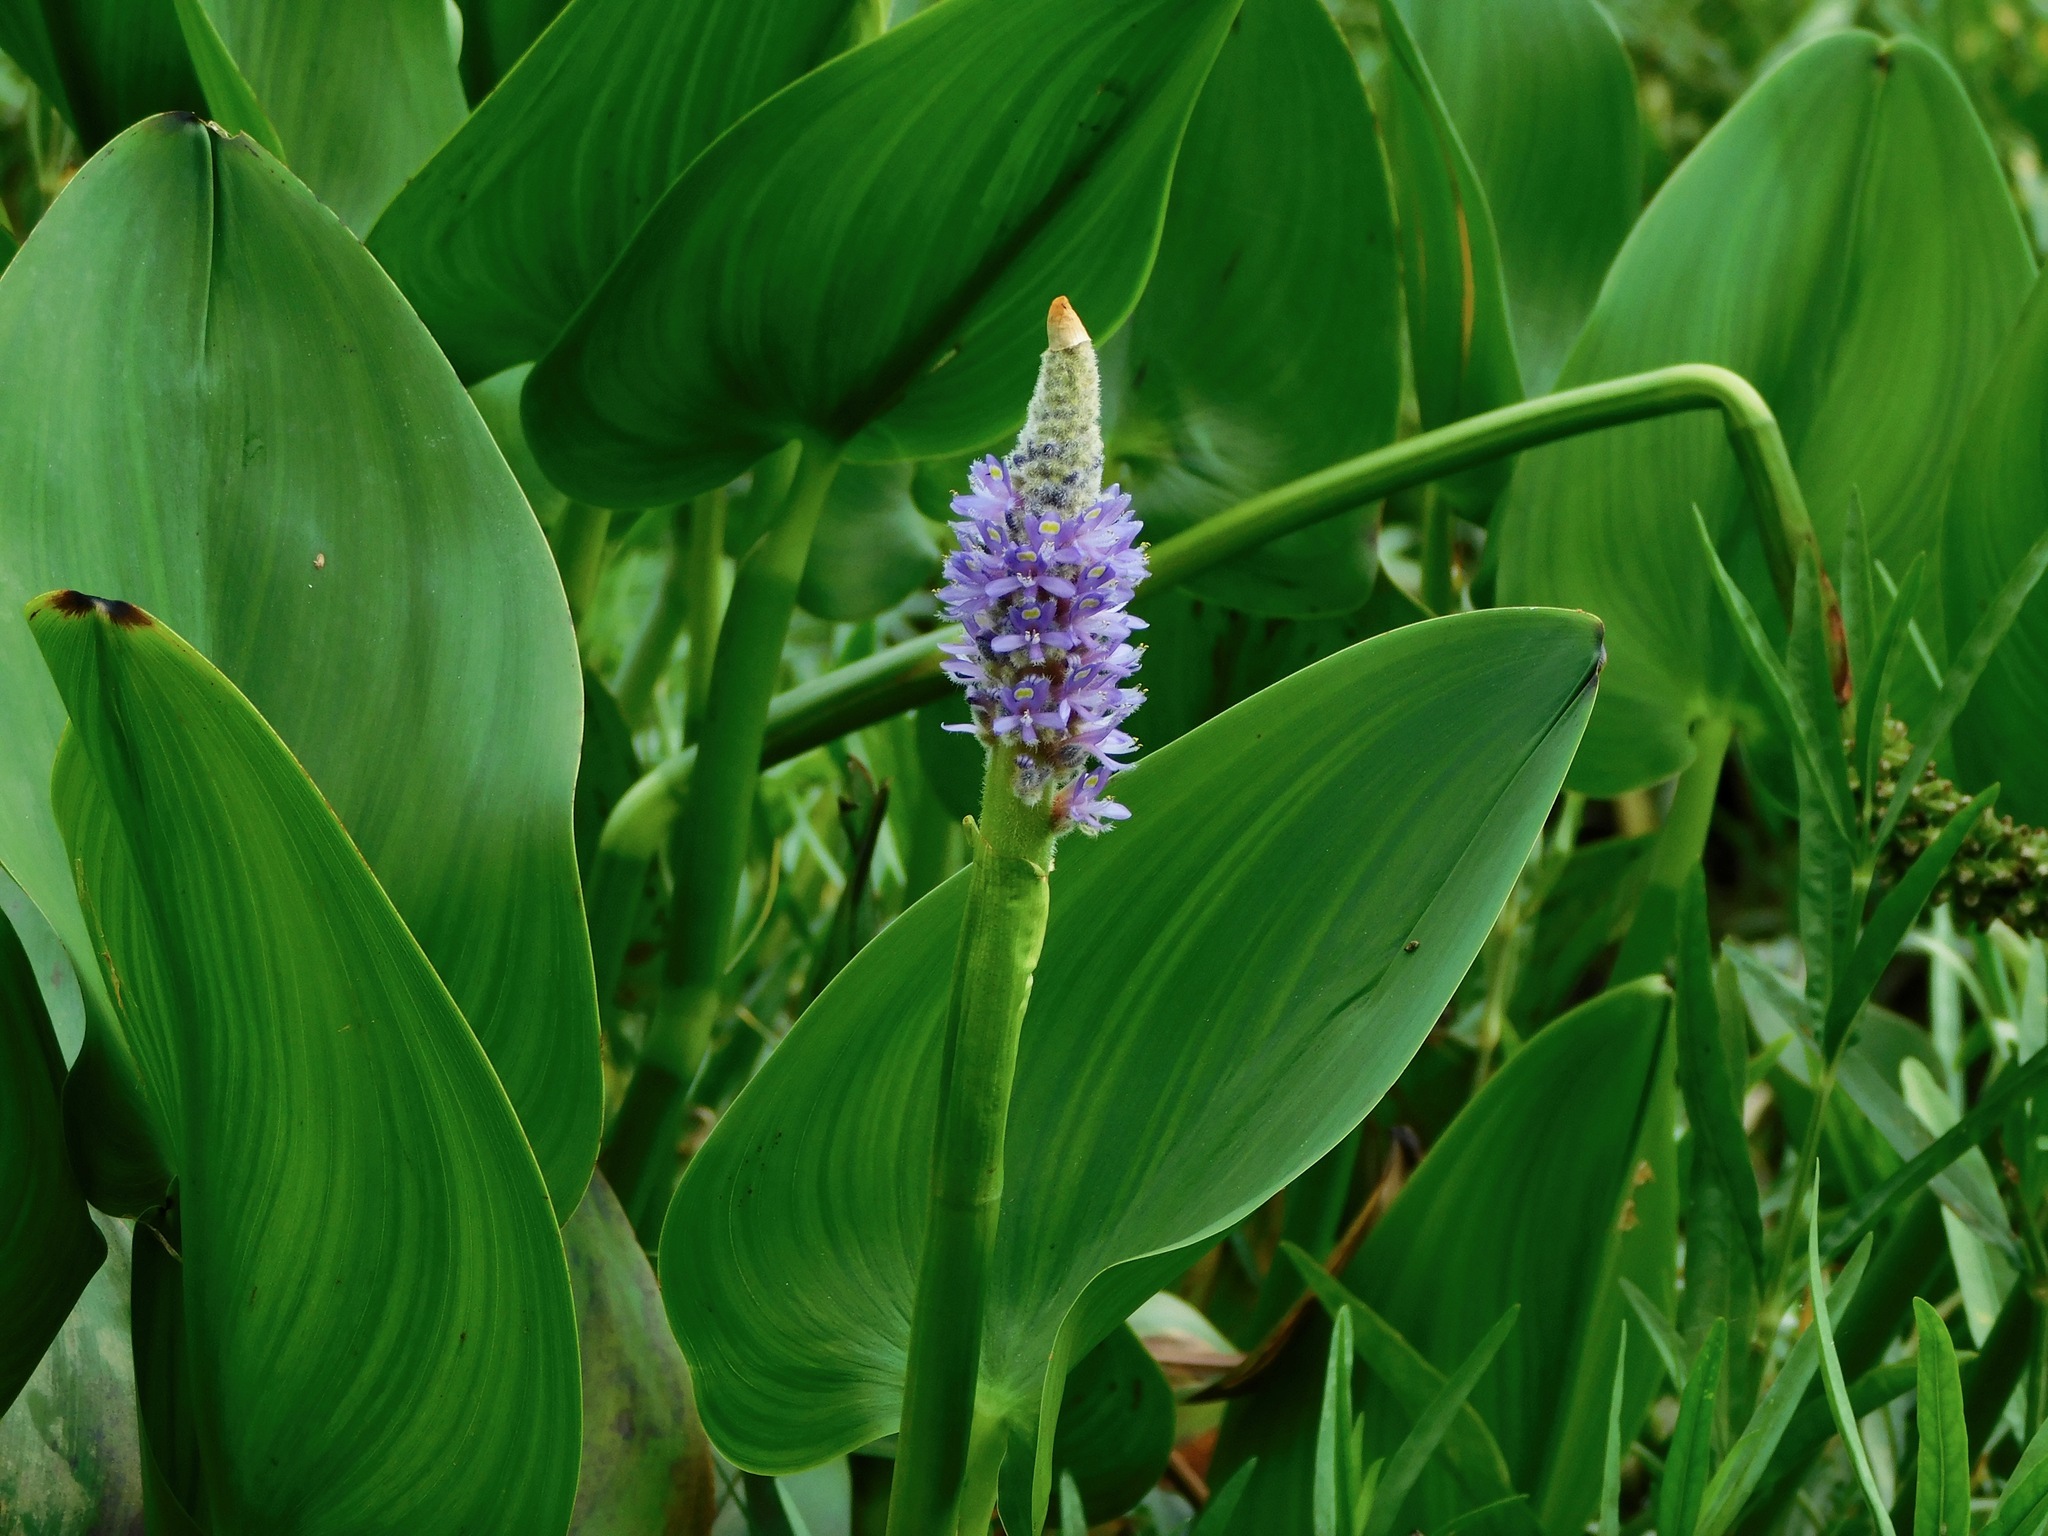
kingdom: Plantae
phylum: Tracheophyta
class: Liliopsida
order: Commelinales
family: Pontederiaceae
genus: Pontederia
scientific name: Pontederia cordata
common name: Pickerelweed
